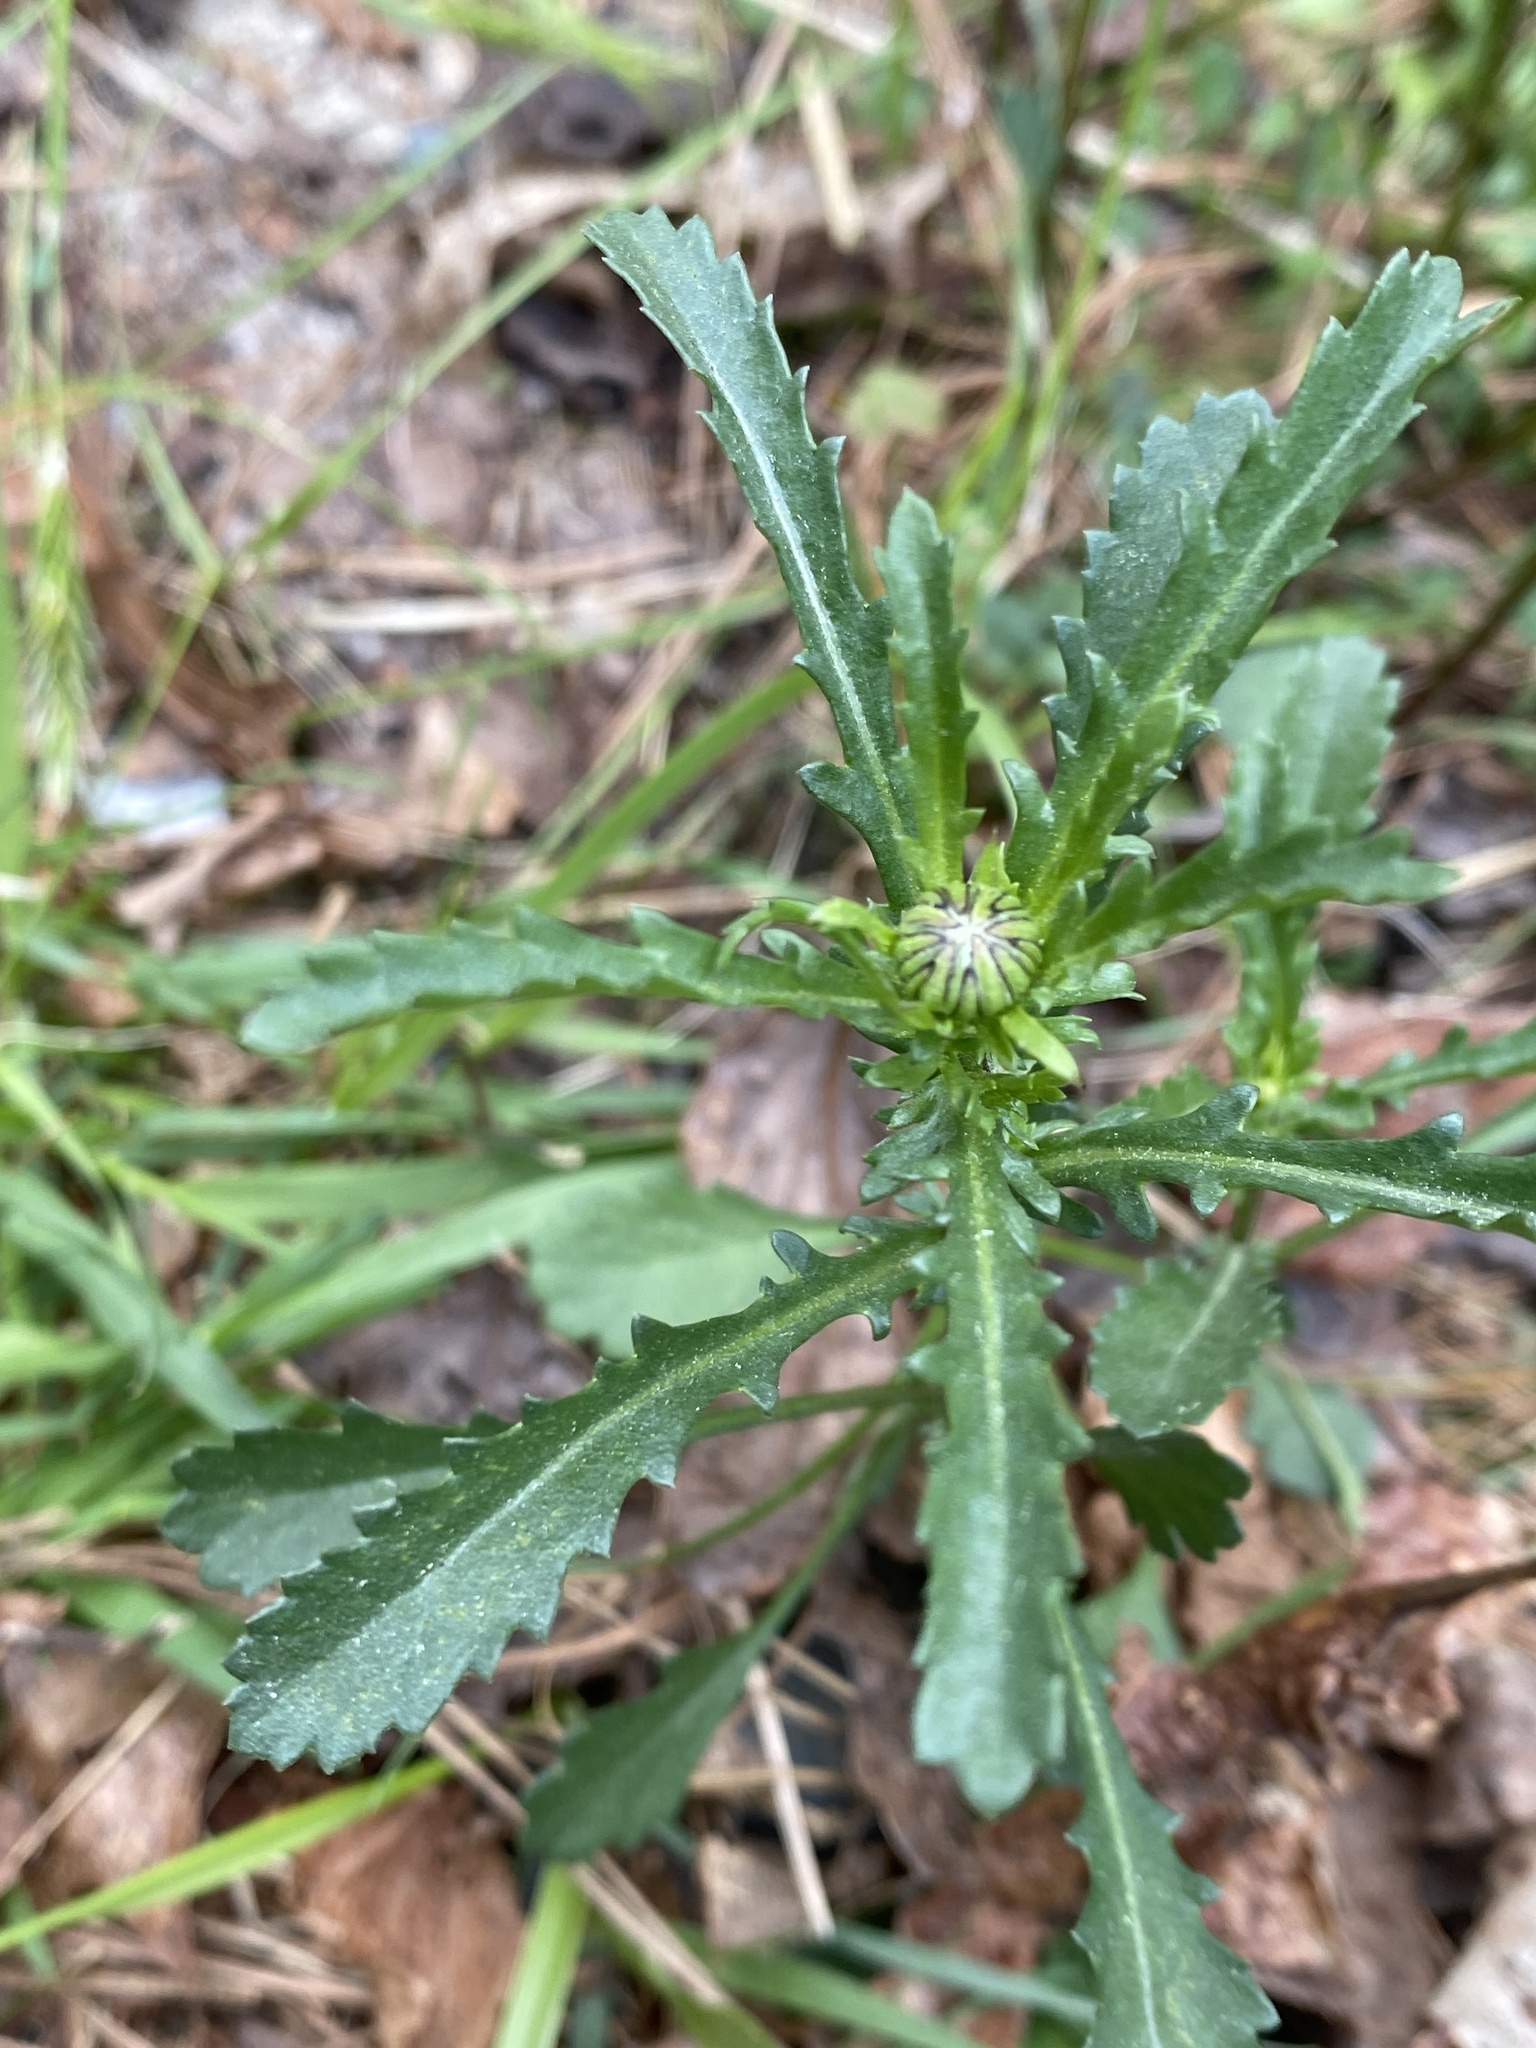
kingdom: Plantae
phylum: Tracheophyta
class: Magnoliopsida
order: Asterales
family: Asteraceae
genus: Leucanthemum
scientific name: Leucanthemum vulgare
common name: Oxeye daisy
